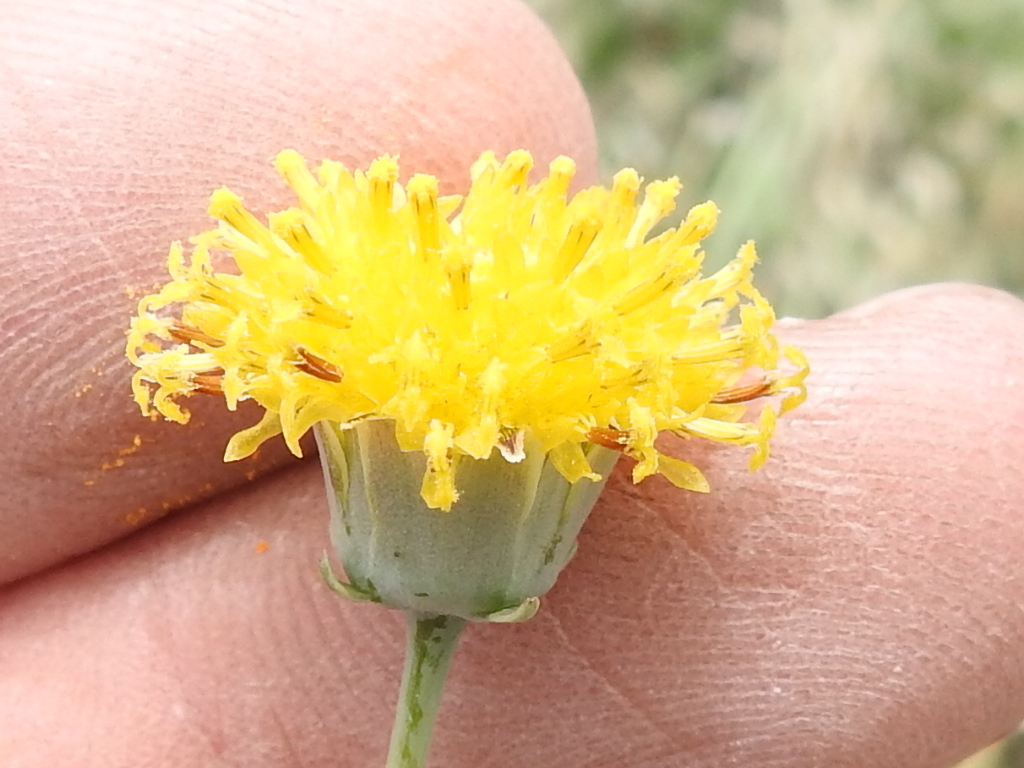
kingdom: Plantae
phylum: Tracheophyta
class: Magnoliopsida
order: Asterales
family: Asteraceae
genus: Thelesperma
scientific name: Thelesperma megapotamicum
